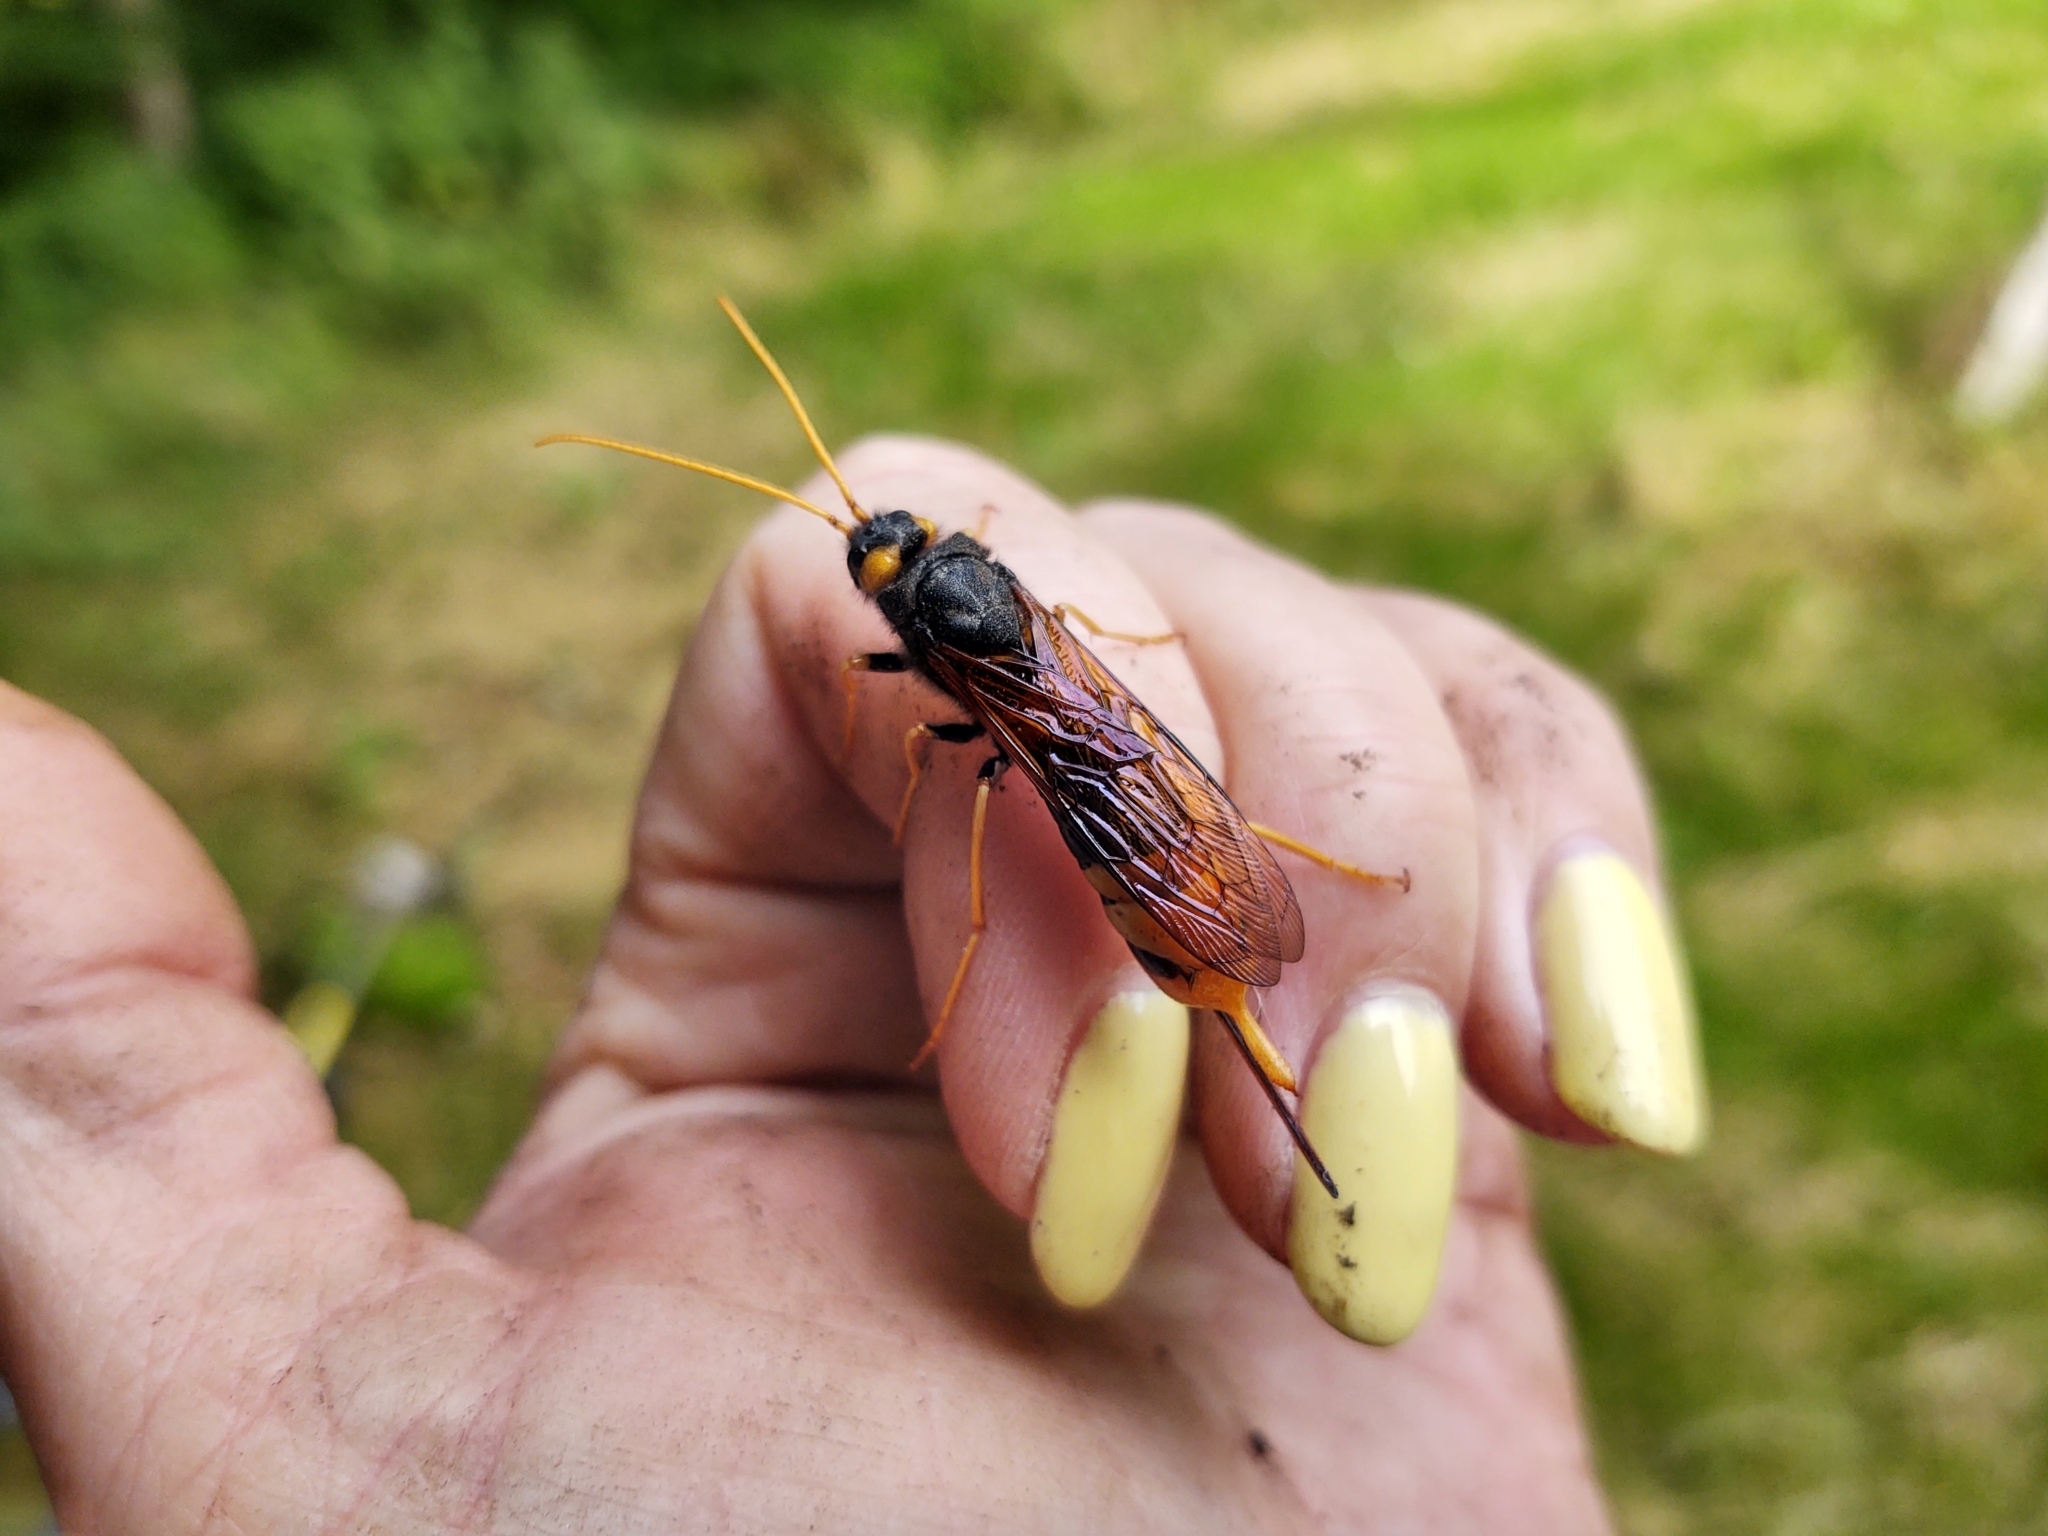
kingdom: Animalia
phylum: Arthropoda
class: Insecta
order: Hymenoptera
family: Siricidae
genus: Urocerus
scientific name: Urocerus gigas
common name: Giant woodwasp
